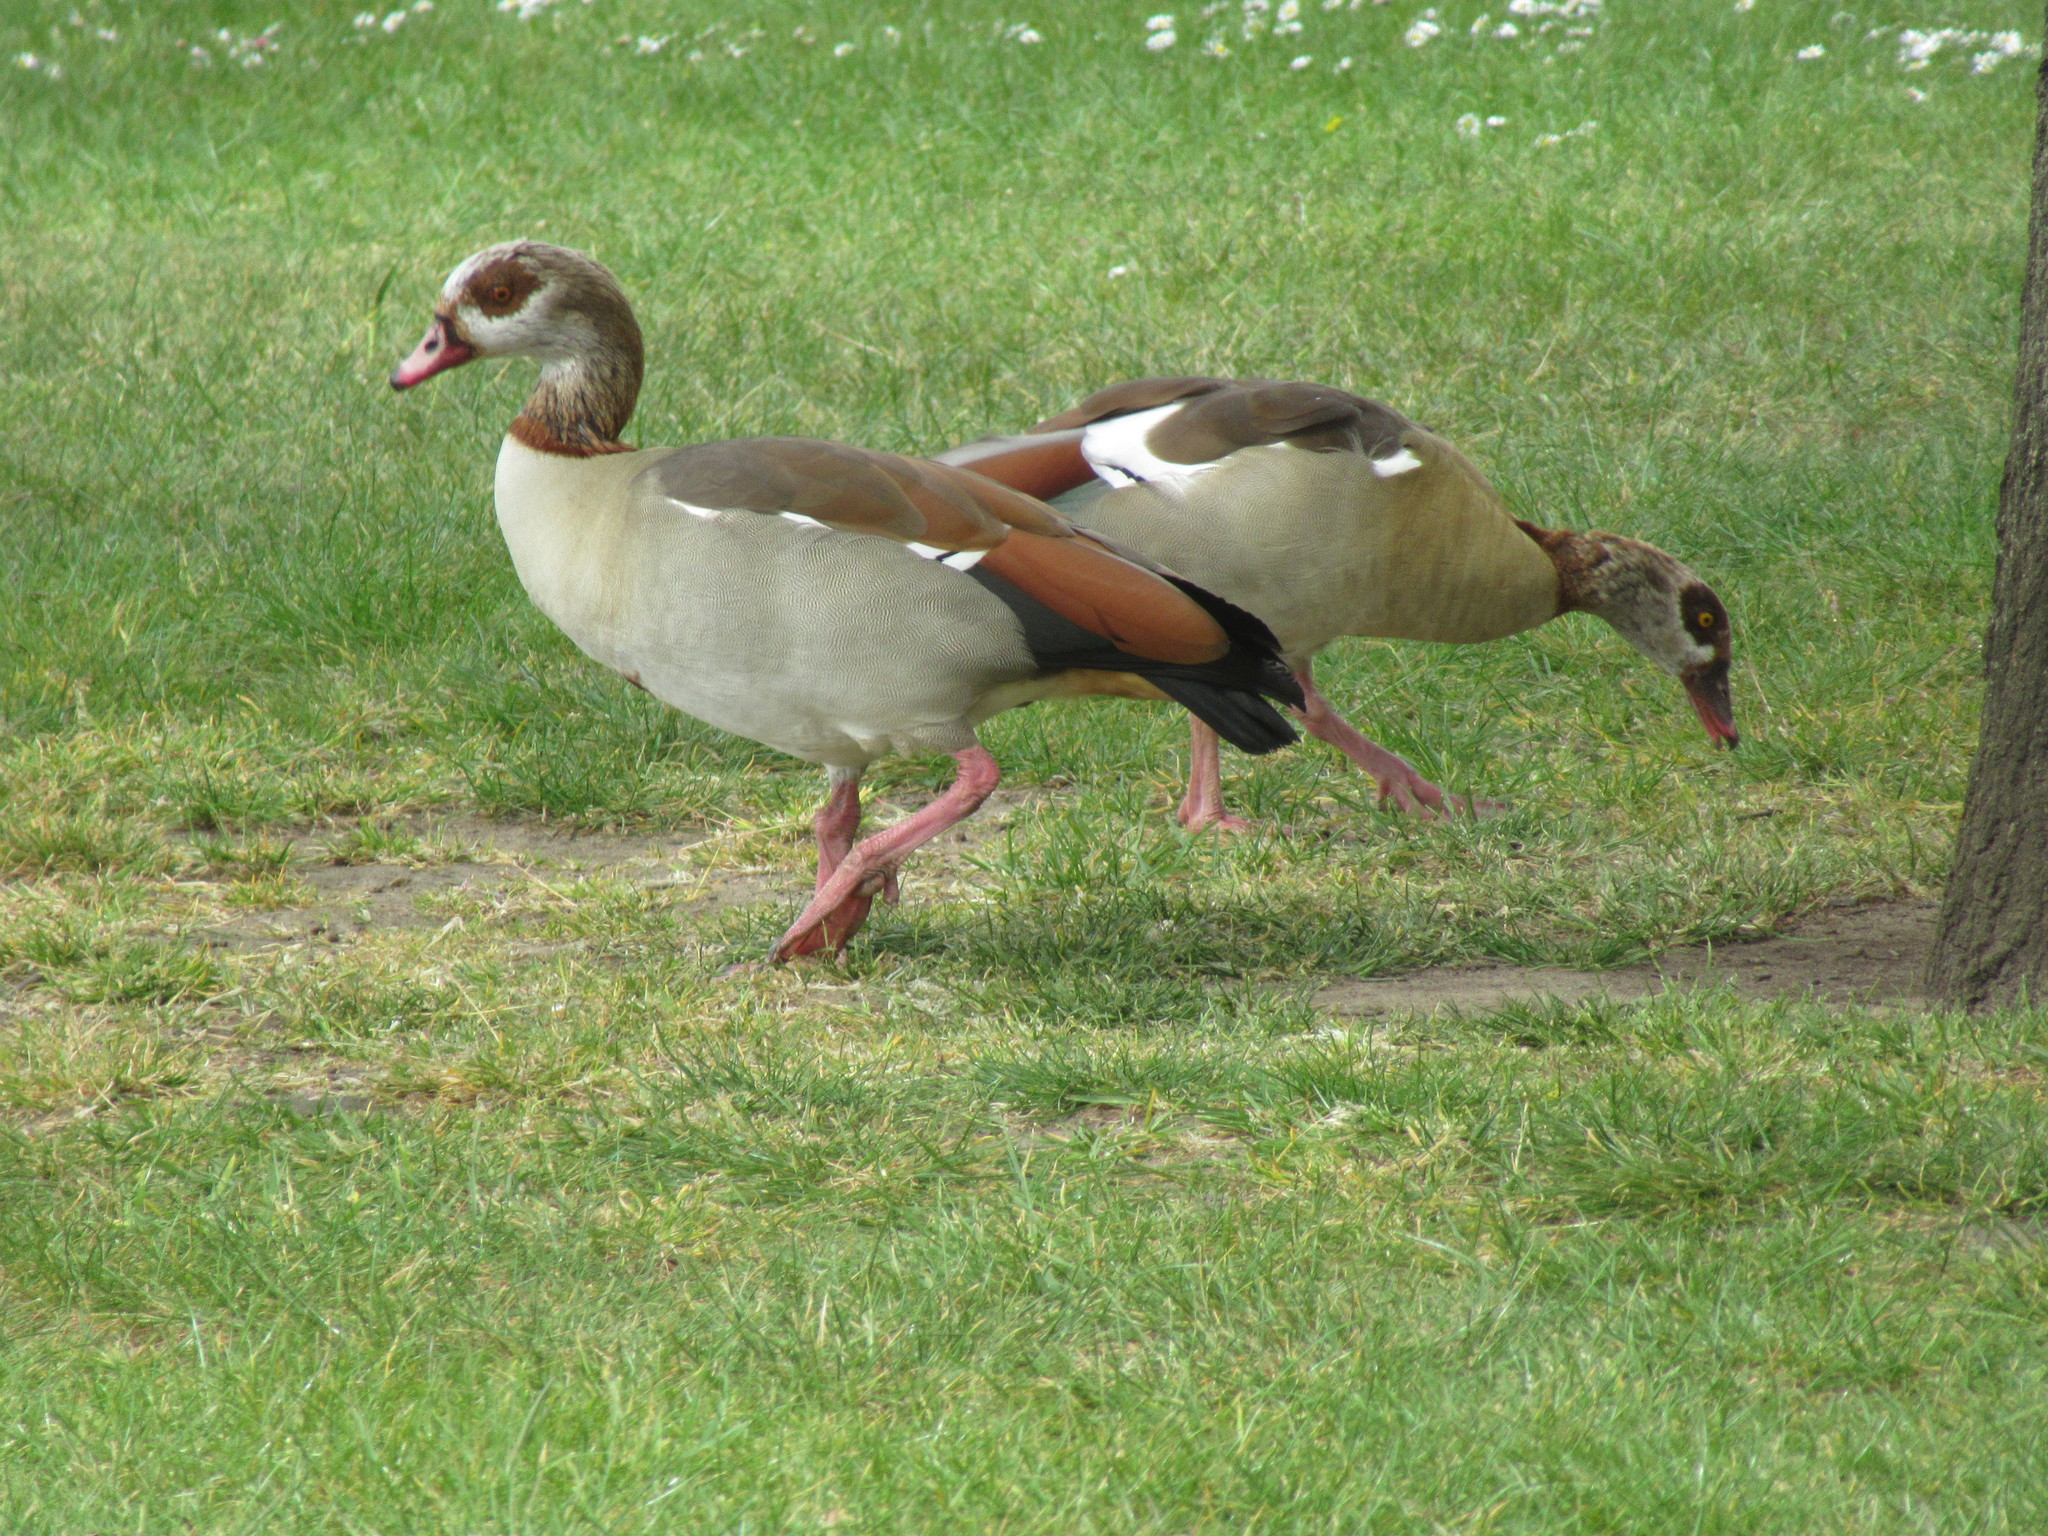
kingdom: Animalia
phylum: Chordata
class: Aves
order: Anseriformes
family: Anatidae
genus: Alopochen
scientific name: Alopochen aegyptiaca
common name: Egyptian goose
